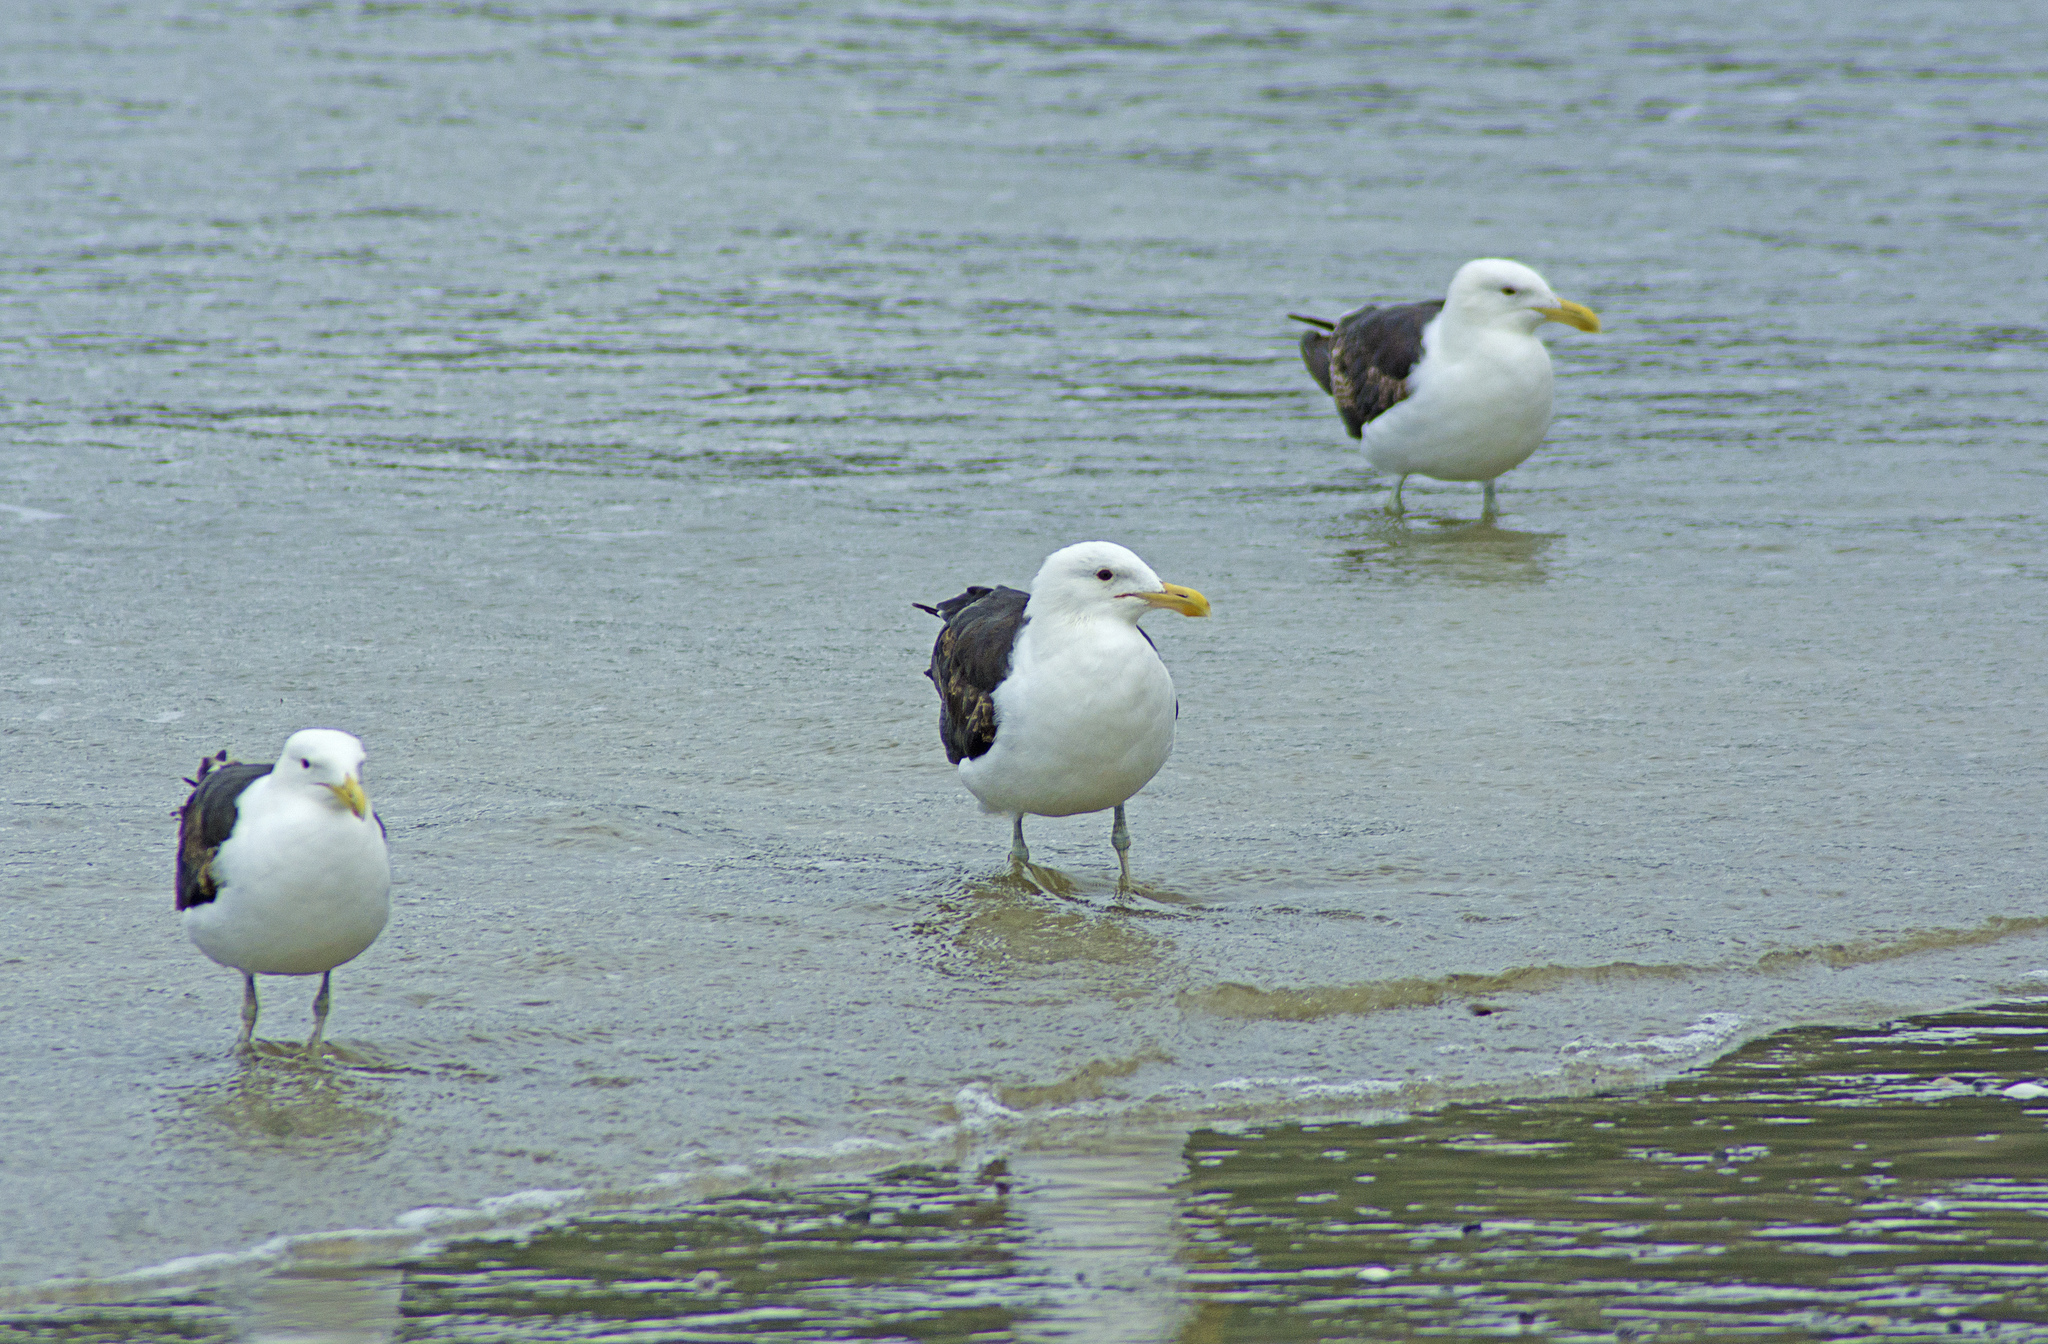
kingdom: Animalia
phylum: Chordata
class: Aves
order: Charadriiformes
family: Laridae
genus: Larus
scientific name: Larus dominicanus
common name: Kelp gull
